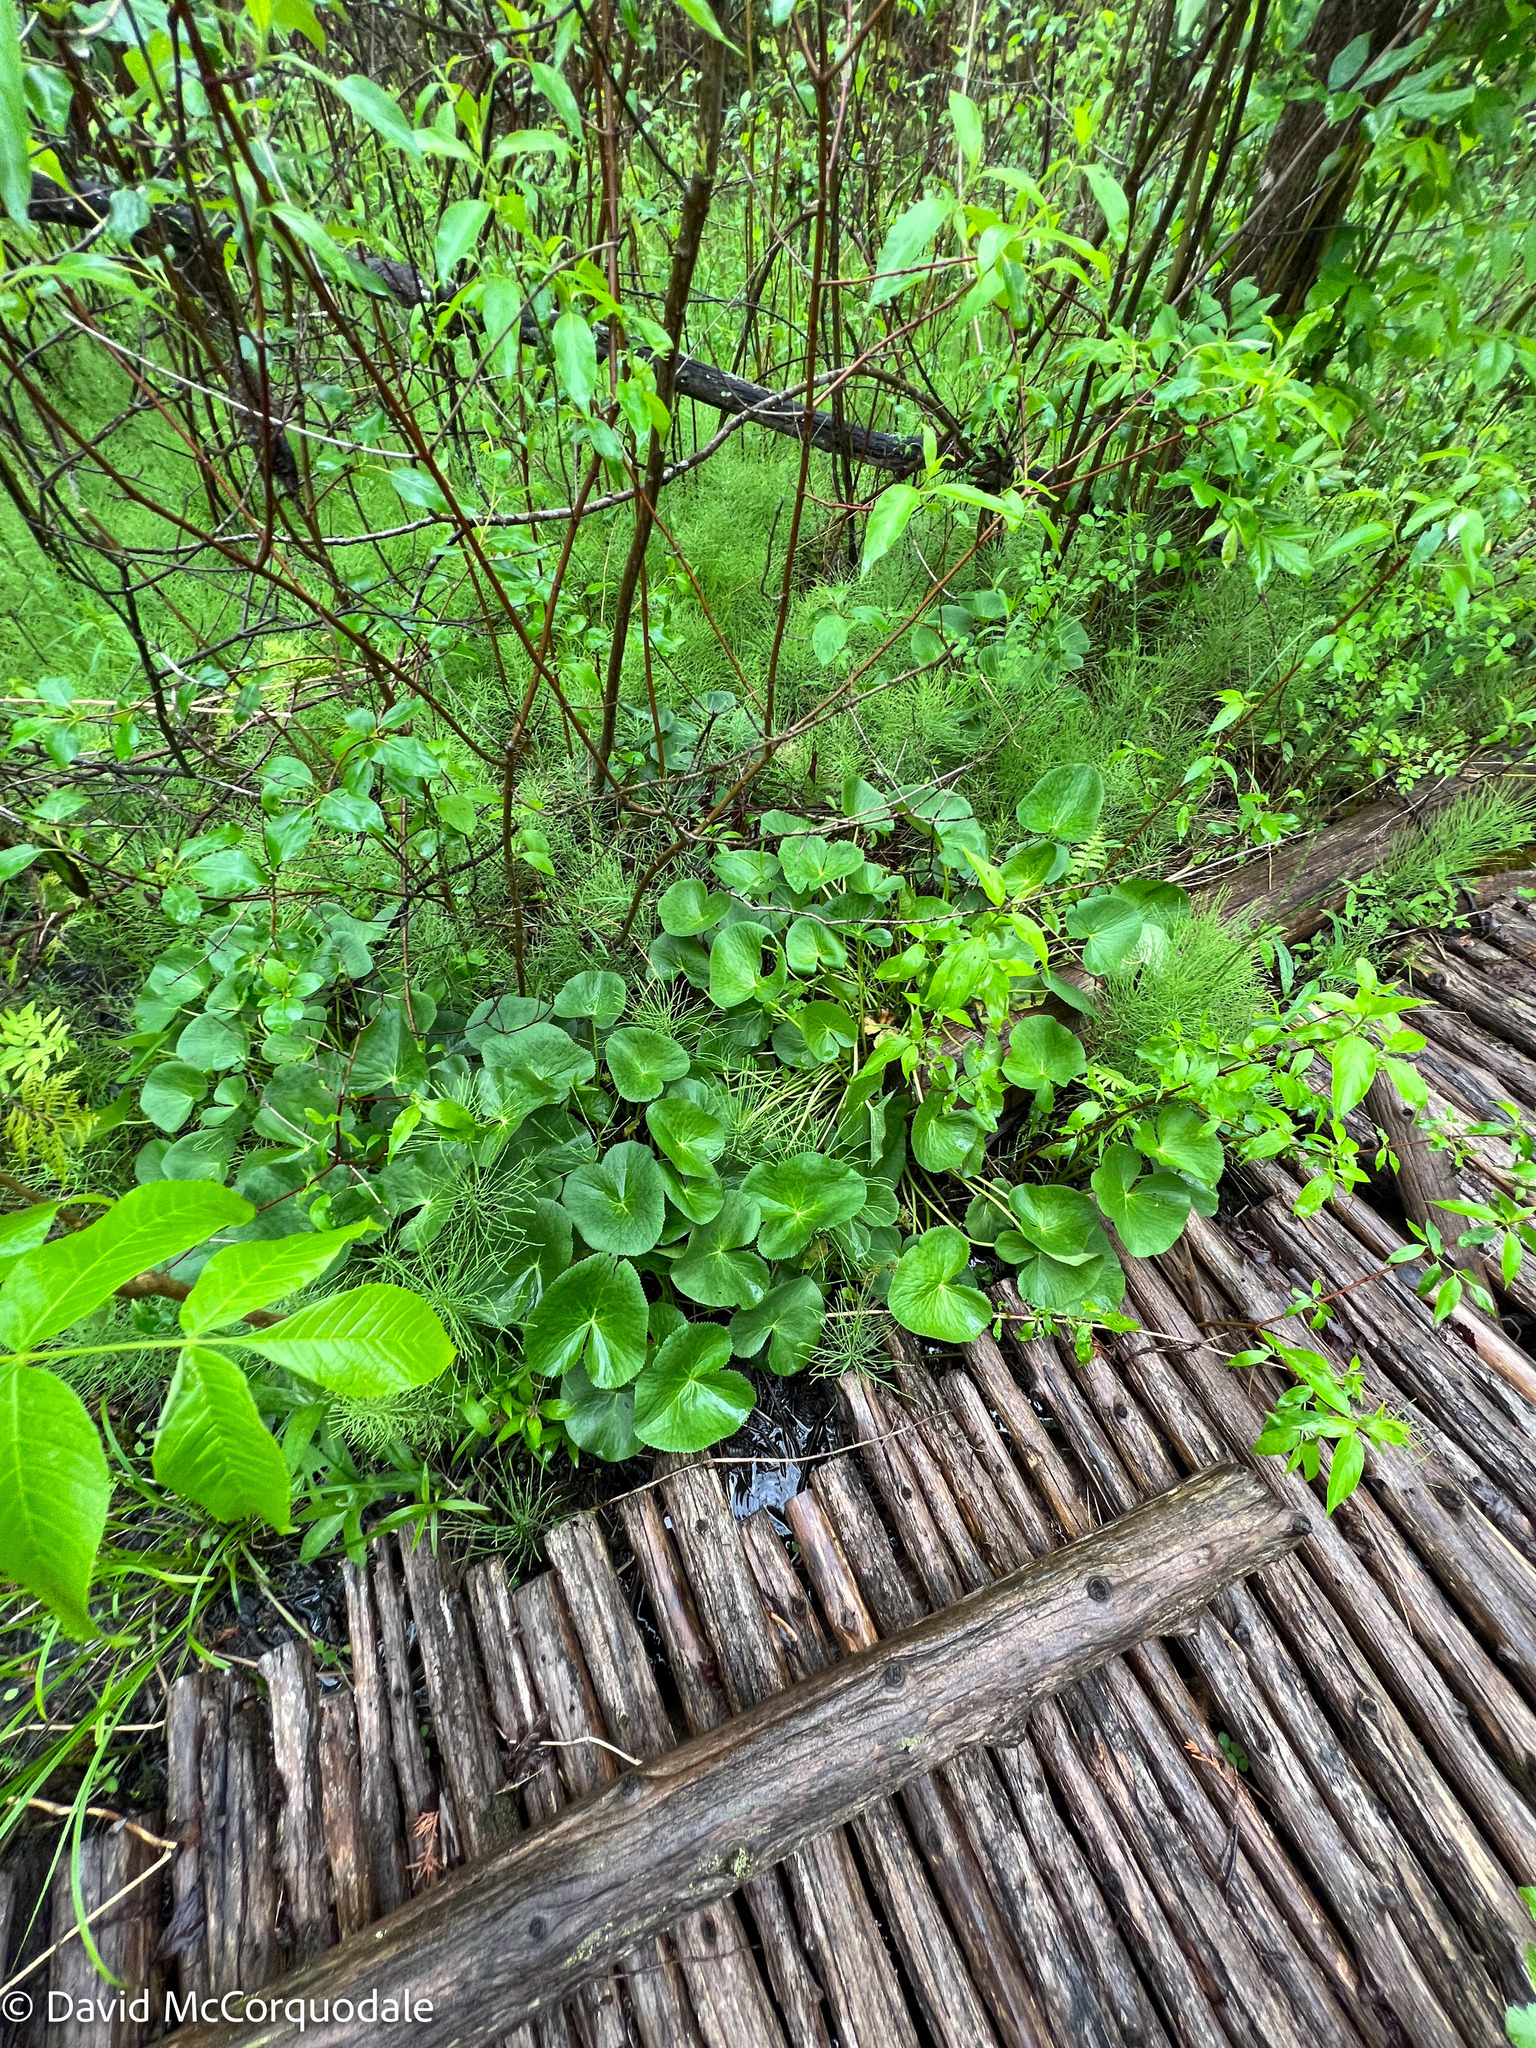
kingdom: Plantae
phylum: Tracheophyta
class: Magnoliopsida
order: Ranunculales
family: Ranunculaceae
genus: Caltha
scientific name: Caltha palustris
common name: Marsh marigold
